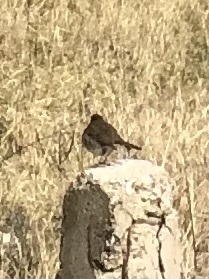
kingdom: Animalia
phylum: Chordata
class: Aves
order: Passeriformes
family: Muscicapidae
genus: Erithacus
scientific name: Erithacus rubecula
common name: European robin
